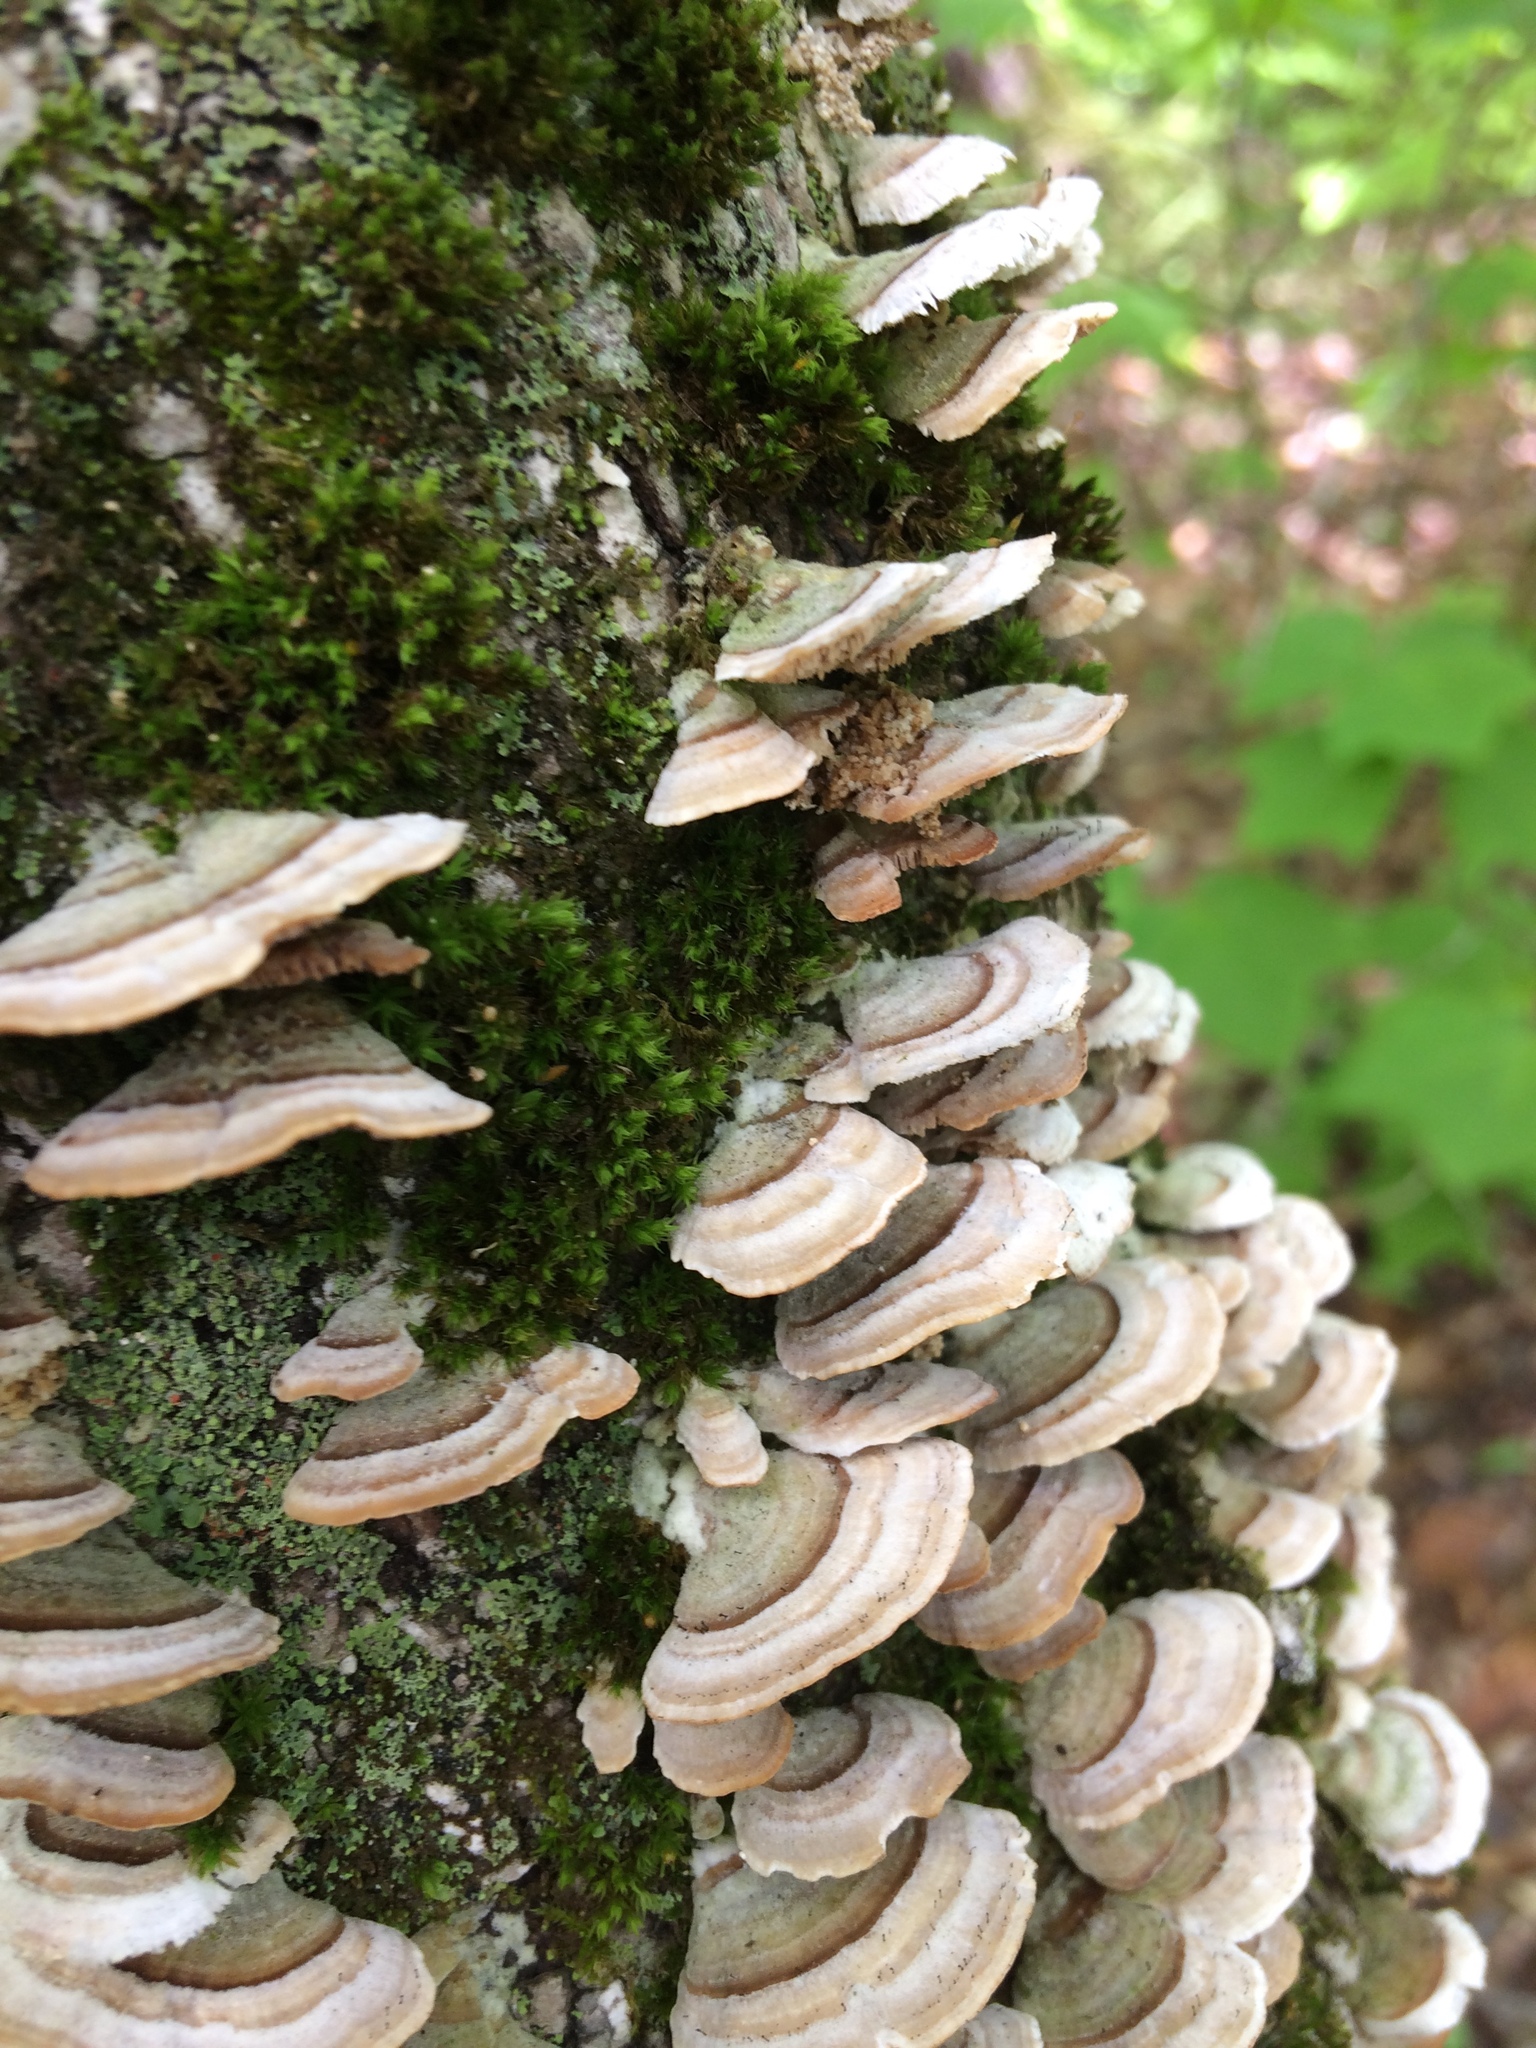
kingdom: Fungi
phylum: Ascomycota
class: Eurotiomycetes
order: Mycocaliciales
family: Mycocaliciaceae
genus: Phaeocalicium
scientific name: Phaeocalicium polyporaeum
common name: Fairy pins
